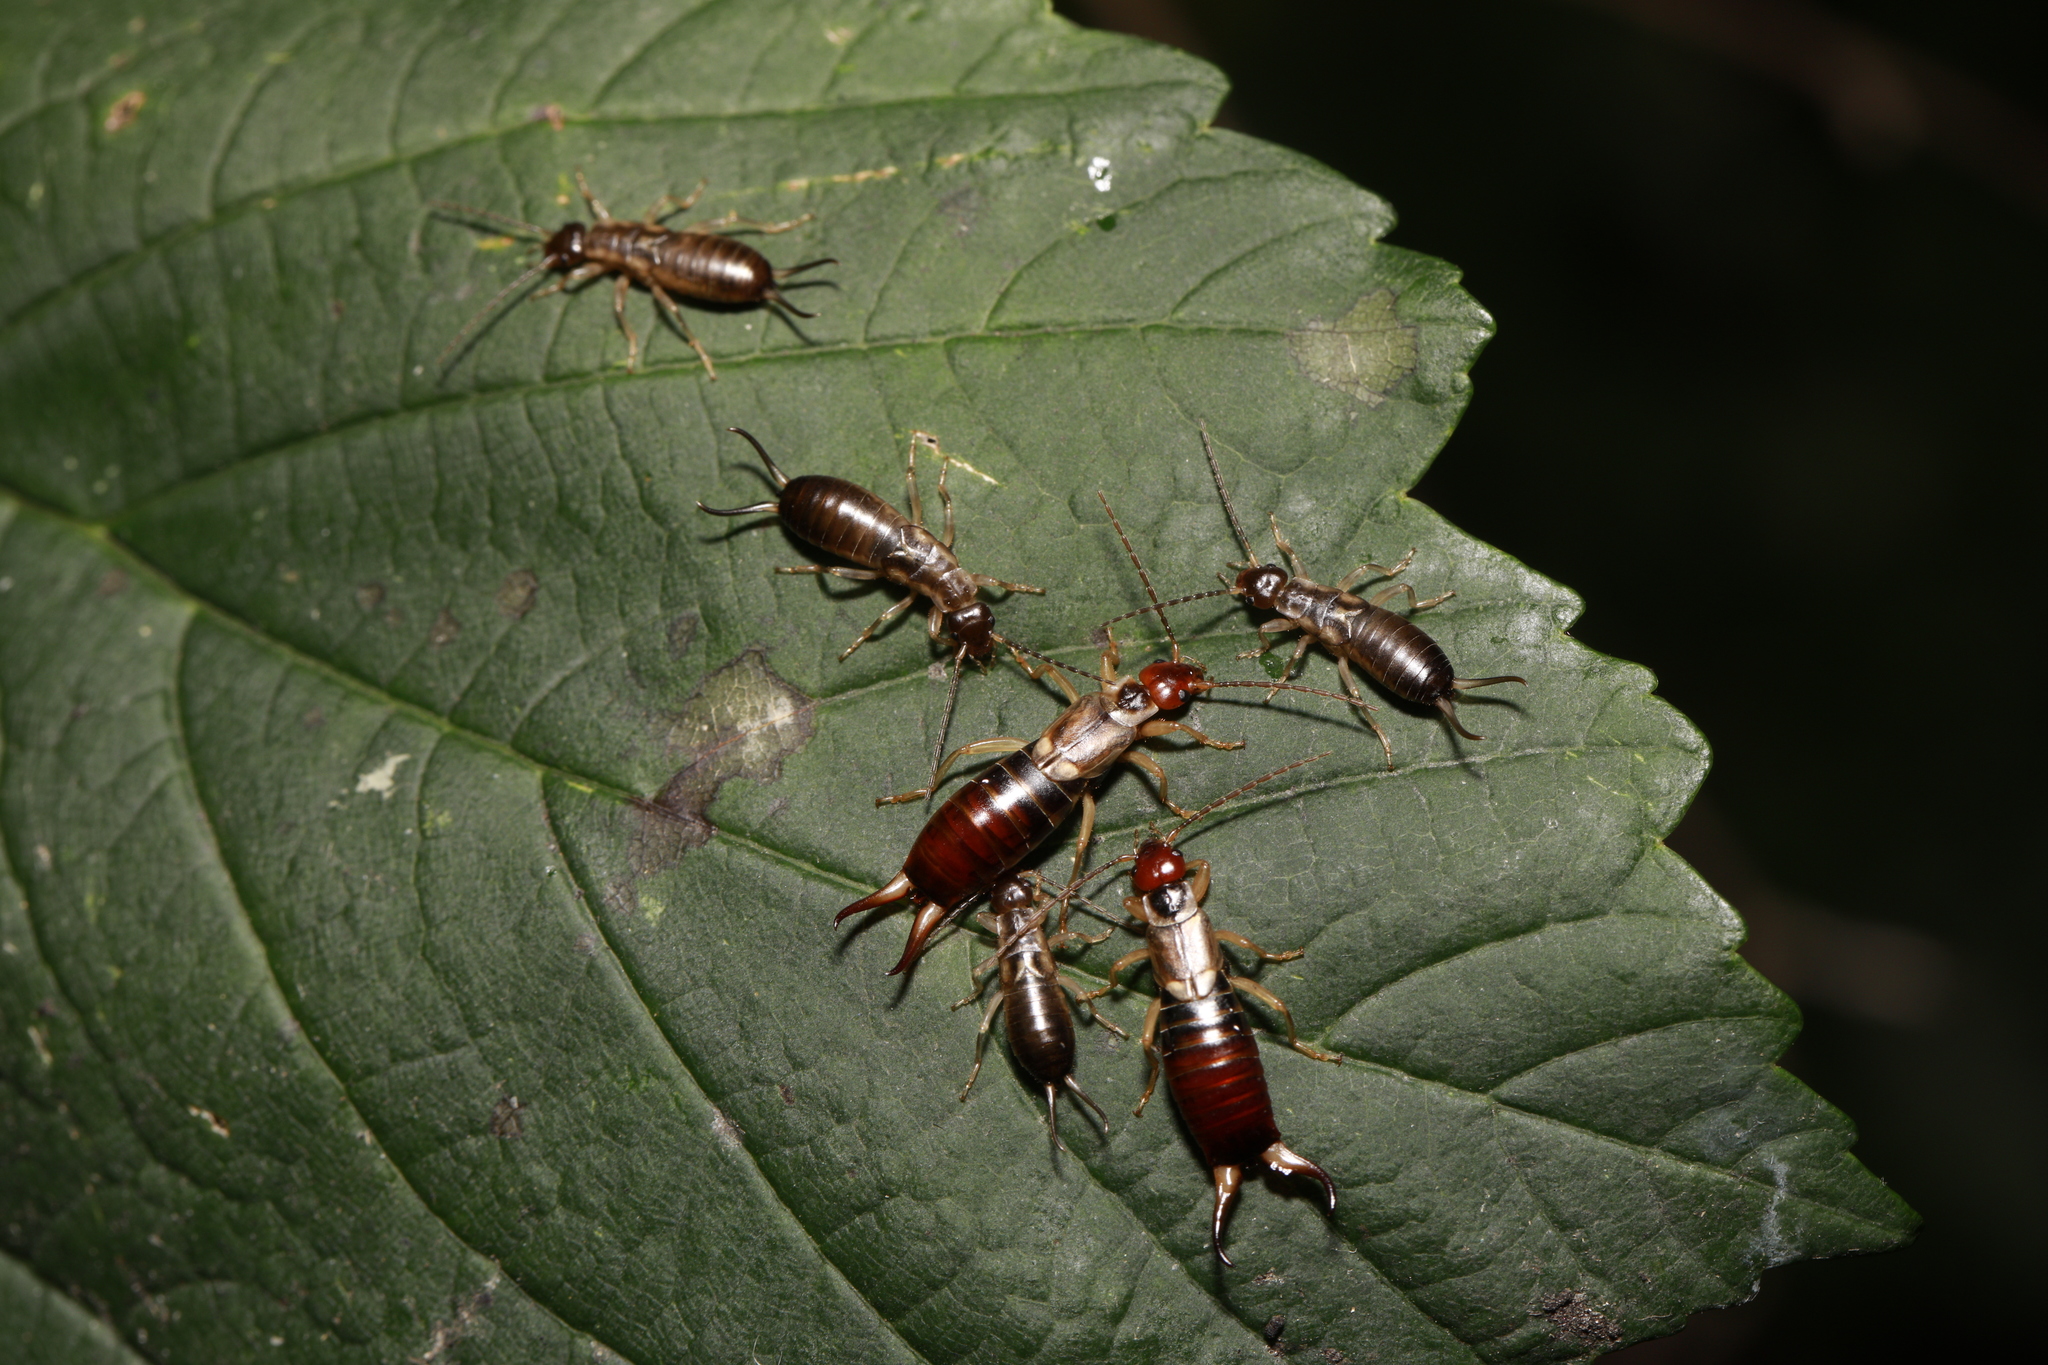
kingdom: Animalia
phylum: Arthropoda
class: Insecta
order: Dermaptera
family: Forficulidae
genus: Forficula
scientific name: Forficula
